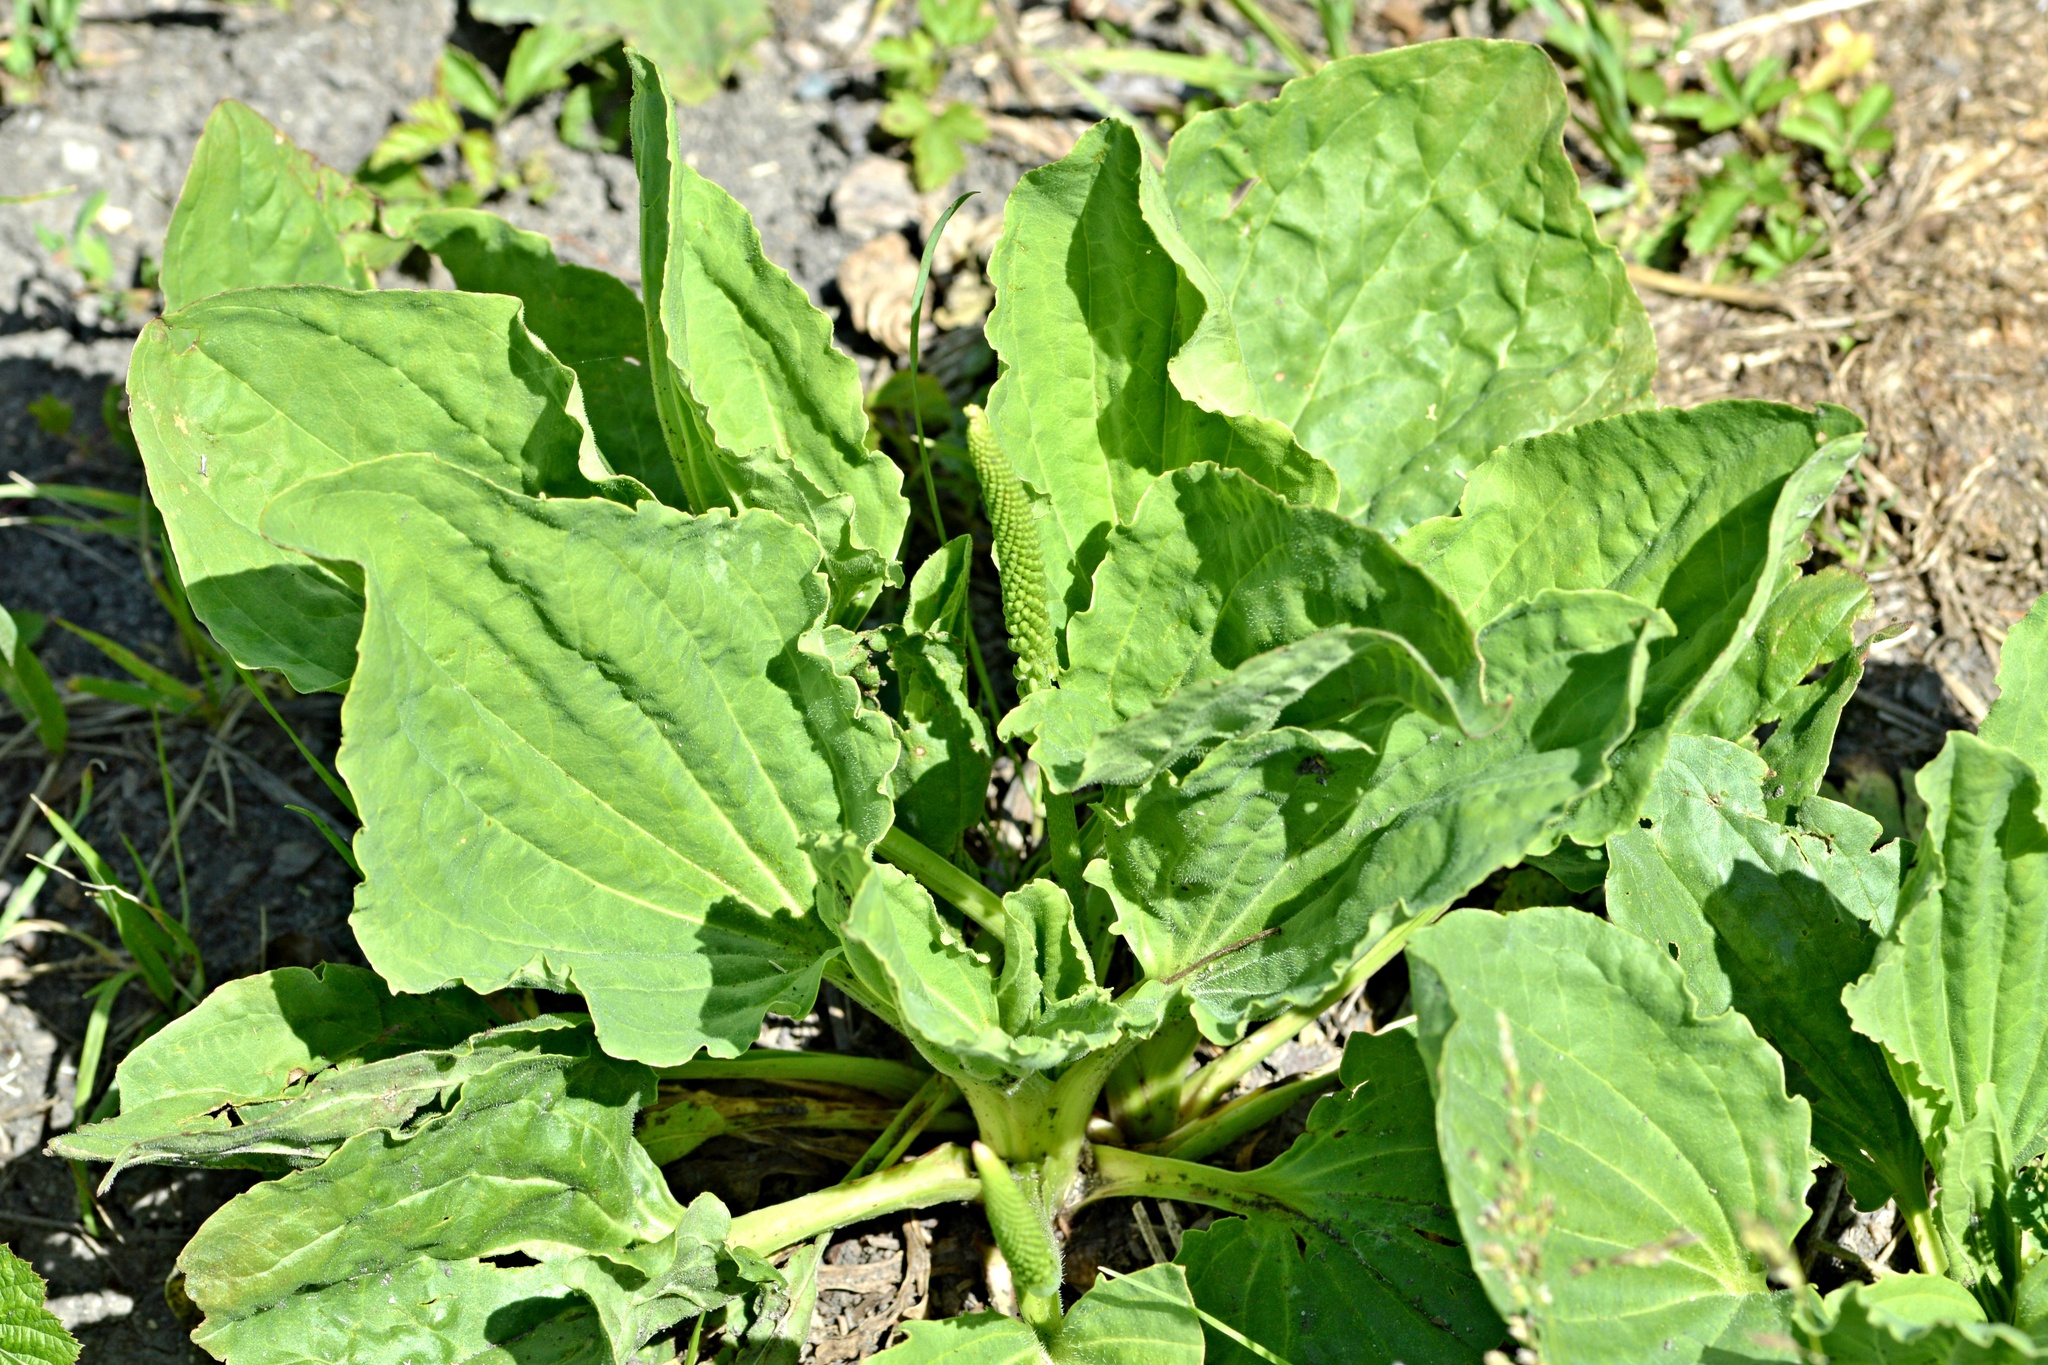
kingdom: Plantae
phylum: Tracheophyta
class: Magnoliopsida
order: Lamiales
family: Plantaginaceae
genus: Plantago
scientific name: Plantago major
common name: Common plantain
